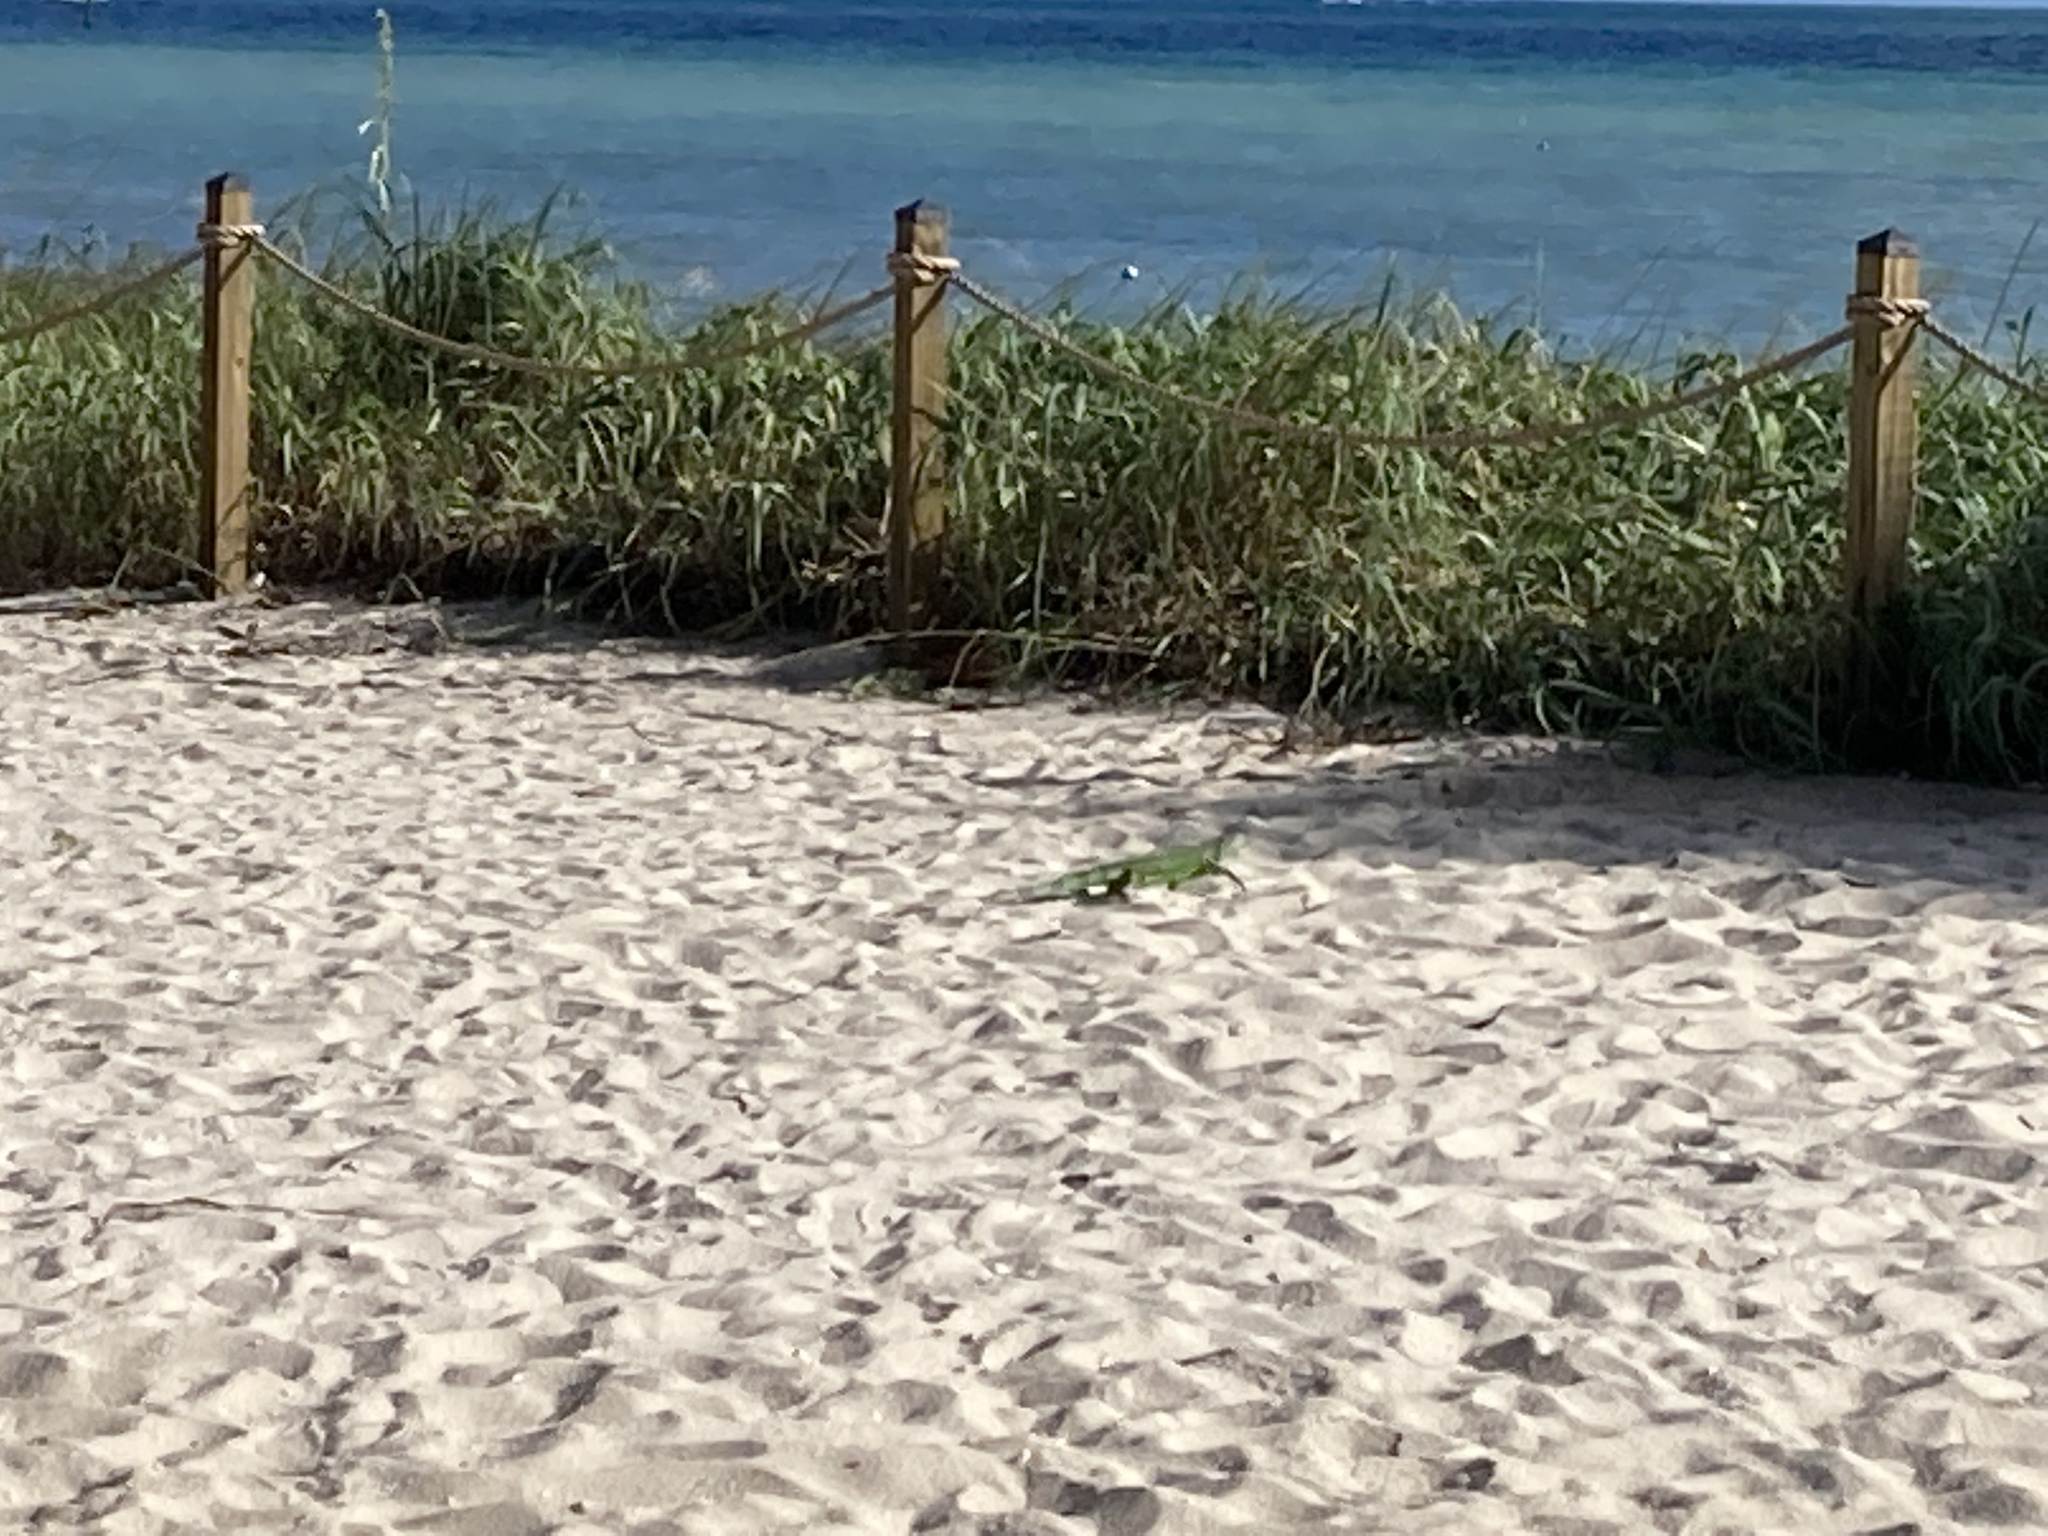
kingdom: Animalia
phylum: Chordata
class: Squamata
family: Iguanidae
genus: Iguana
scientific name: Iguana iguana
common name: Green iguana
